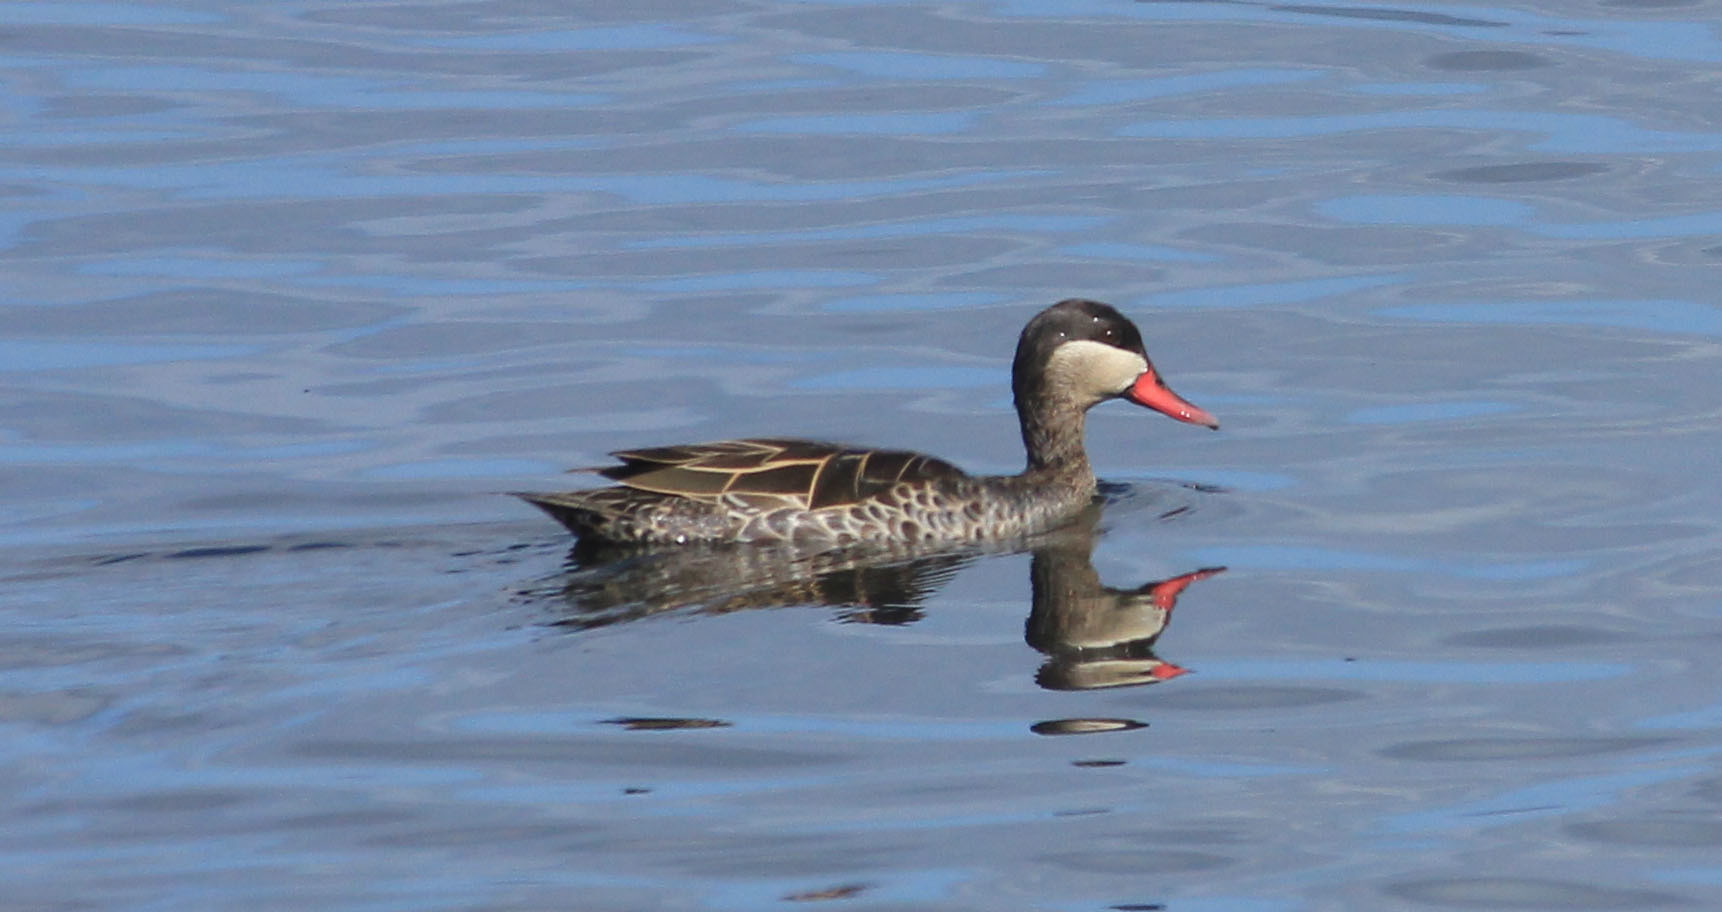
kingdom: Animalia
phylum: Chordata
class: Aves
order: Anseriformes
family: Anatidae
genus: Anas
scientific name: Anas erythrorhyncha
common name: Red-billed teal
